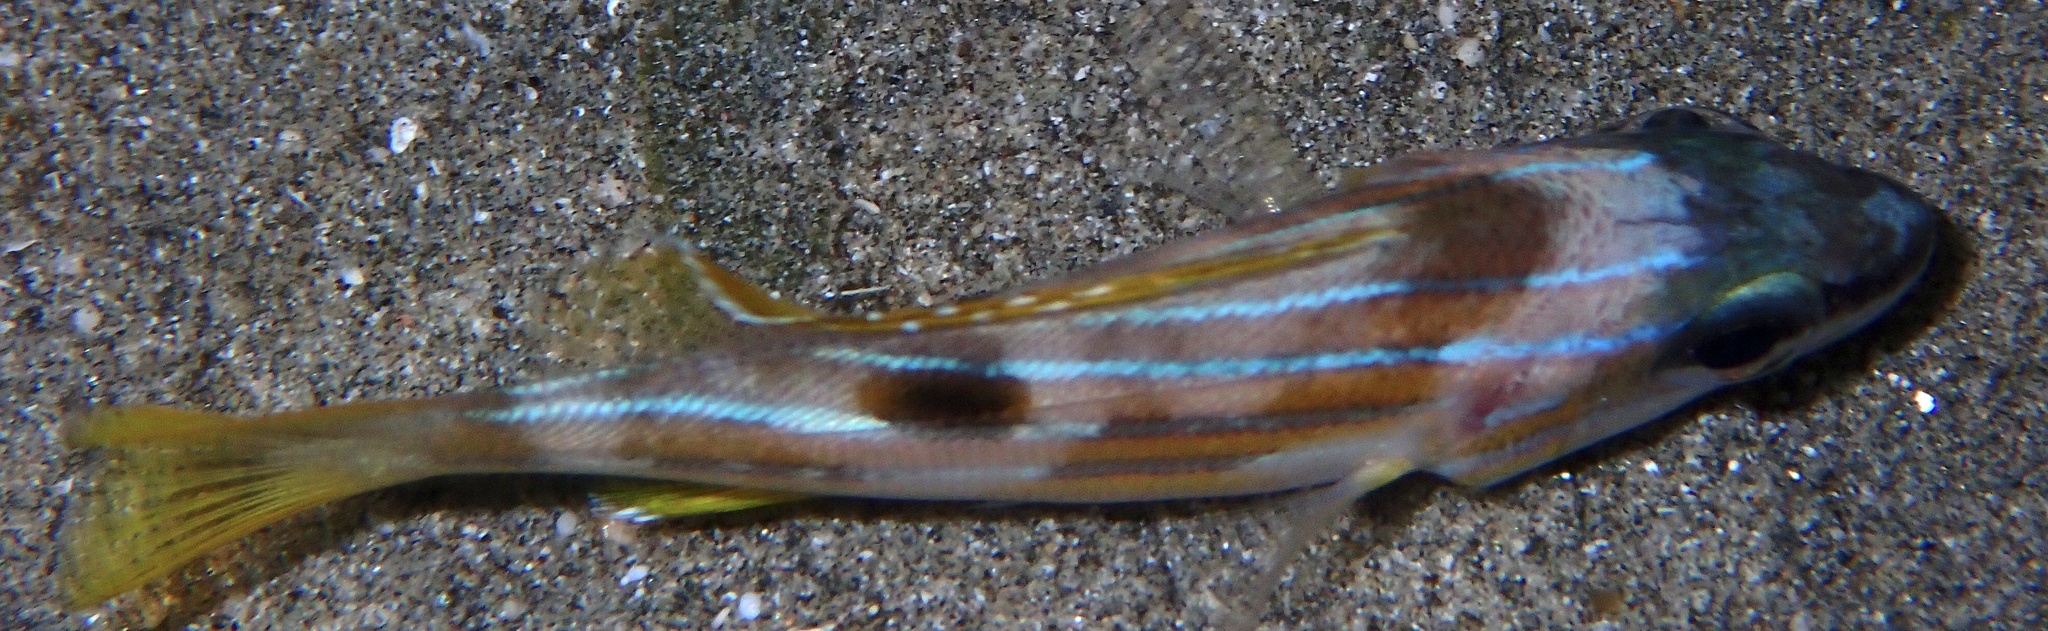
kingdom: Animalia
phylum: Chordata
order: Perciformes
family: Lutjanidae
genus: Lutjanus
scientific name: Lutjanus kasmira
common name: Common bluestripe snapper
